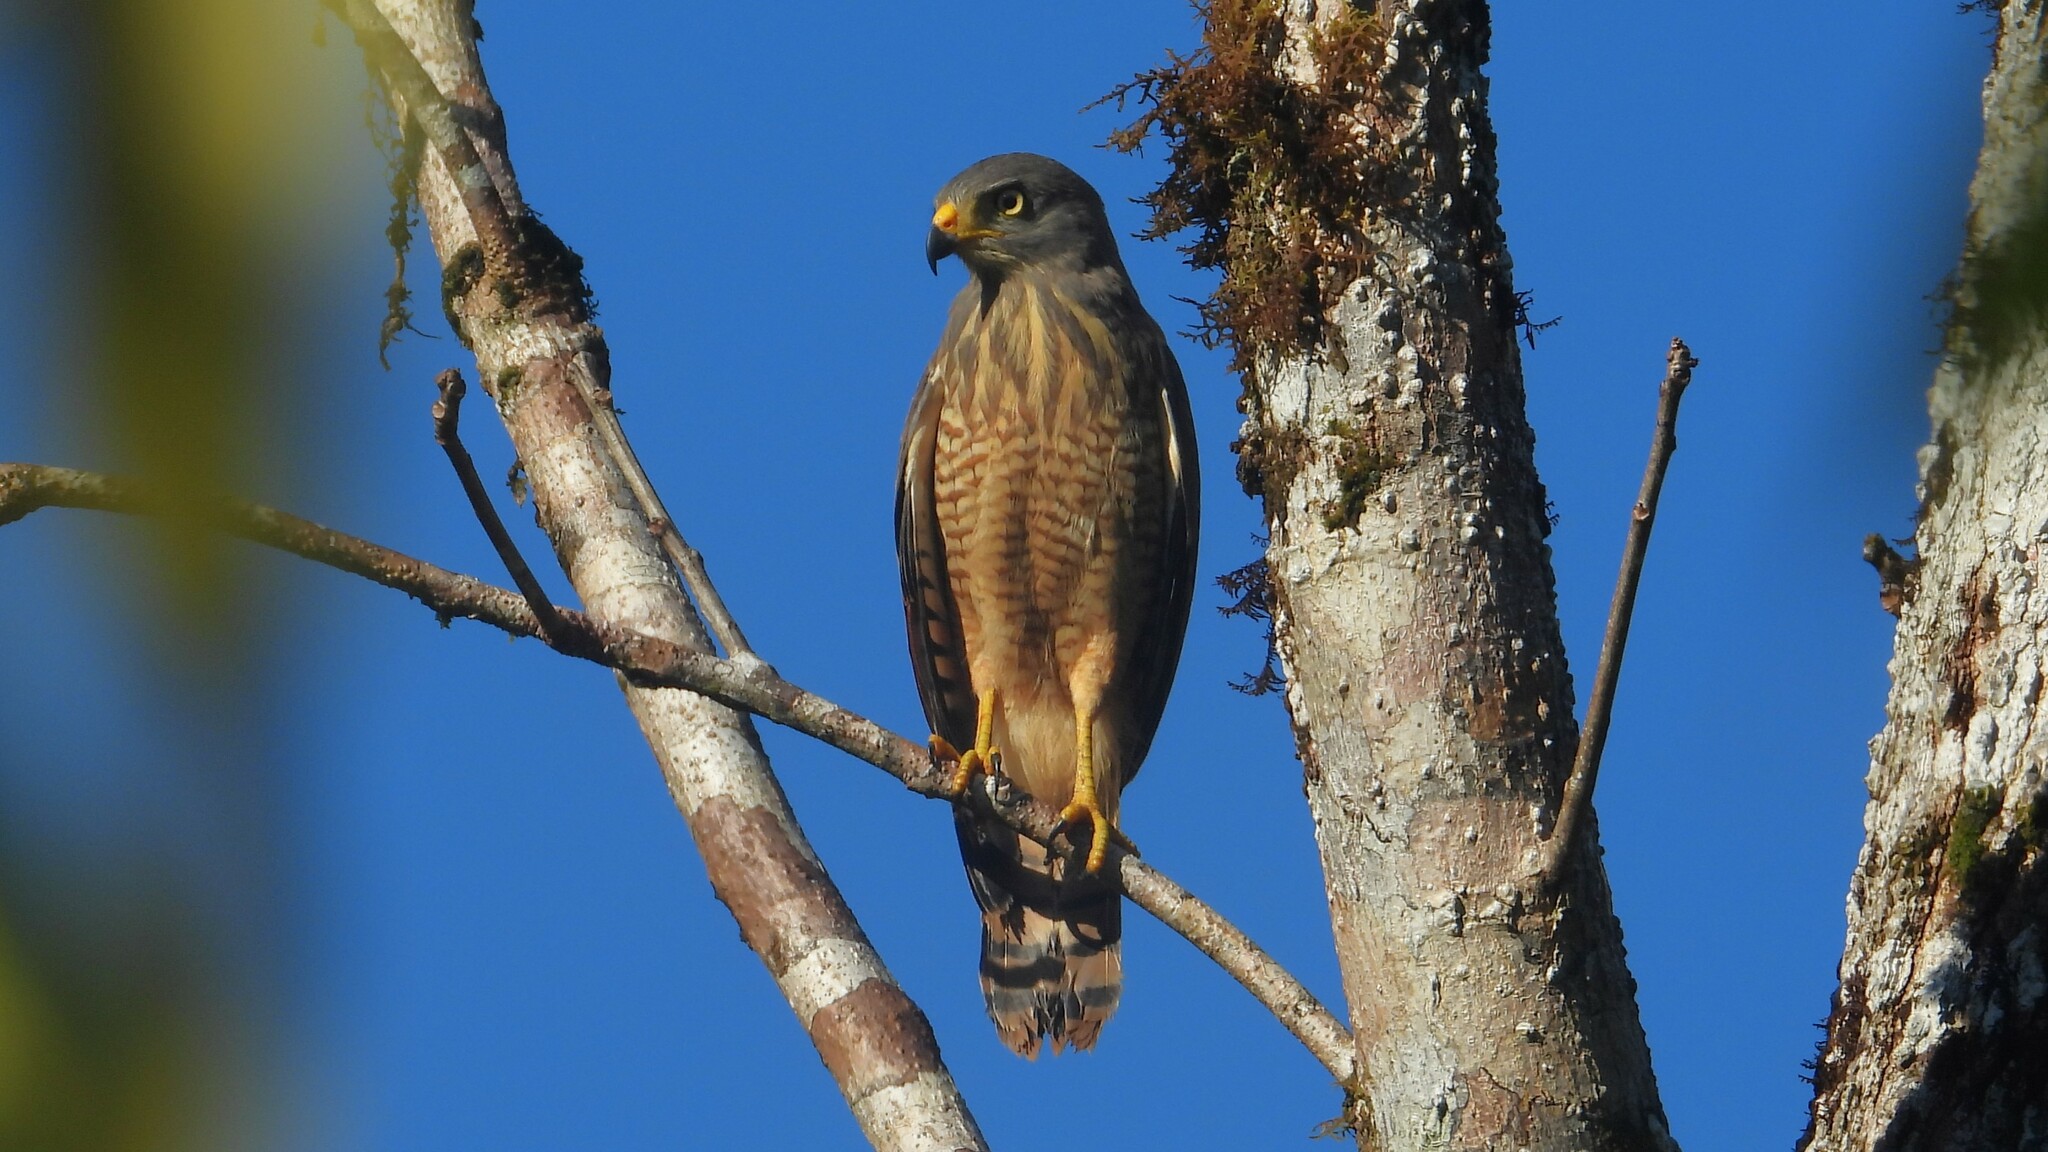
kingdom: Animalia
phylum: Chordata
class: Aves
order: Accipitriformes
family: Accipitridae
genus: Rupornis
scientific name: Rupornis magnirostris
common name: Roadside hawk
